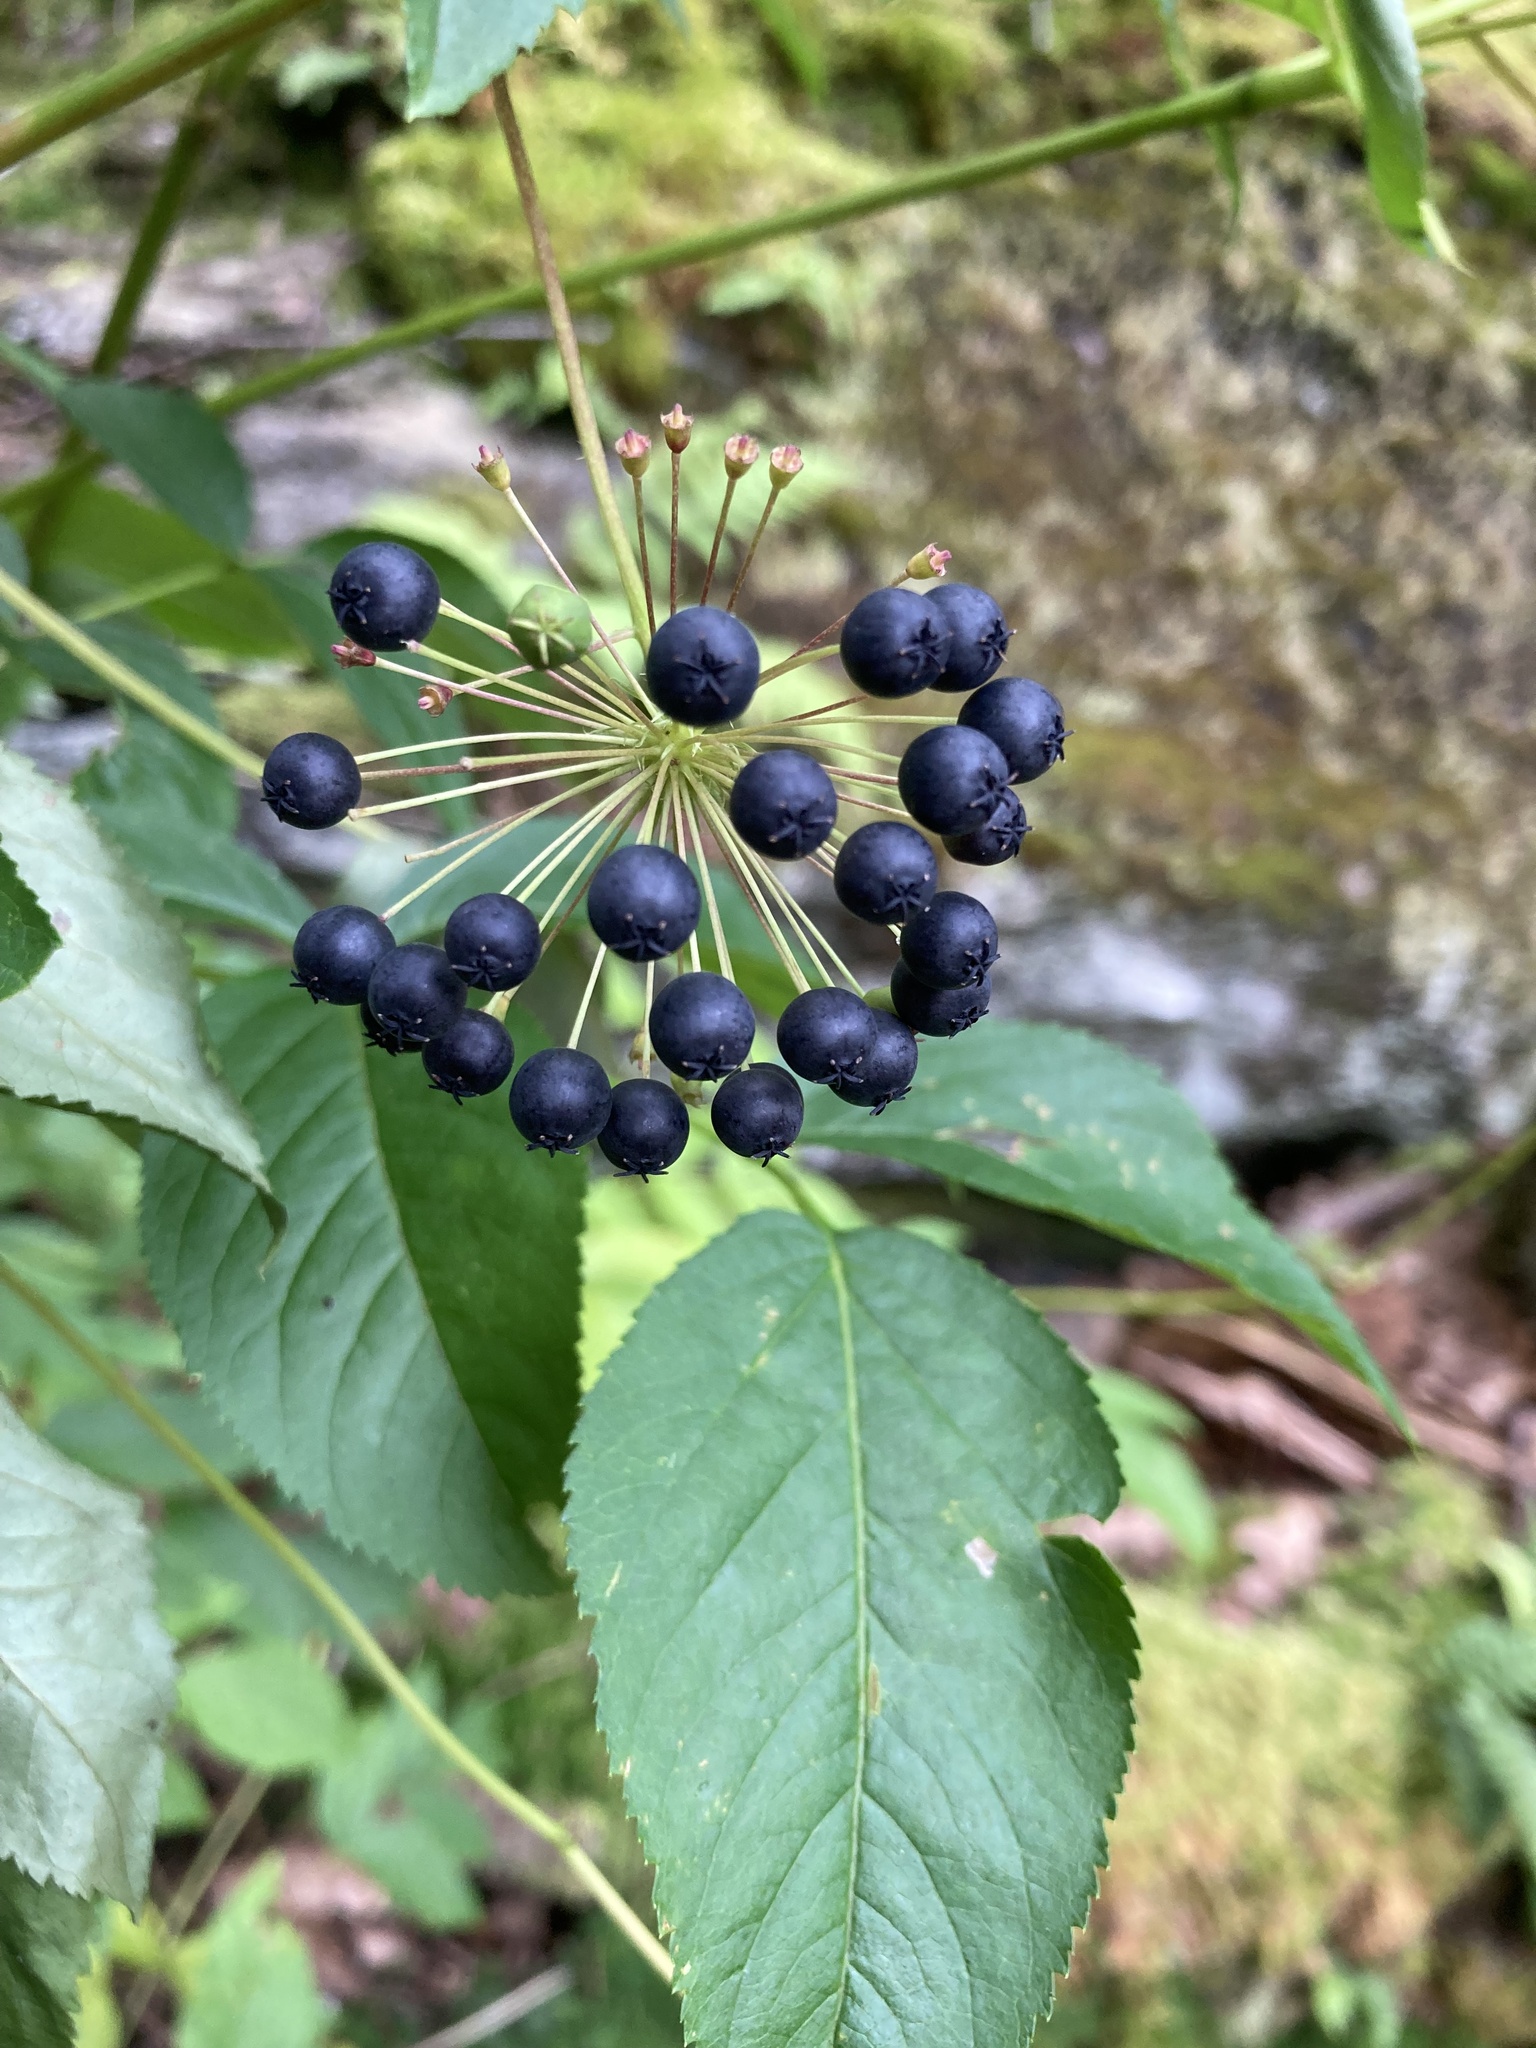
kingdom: Plantae
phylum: Tracheophyta
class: Magnoliopsida
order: Apiales
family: Araliaceae
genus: Aralia
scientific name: Aralia hispida
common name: Bristly sarsaparilla
